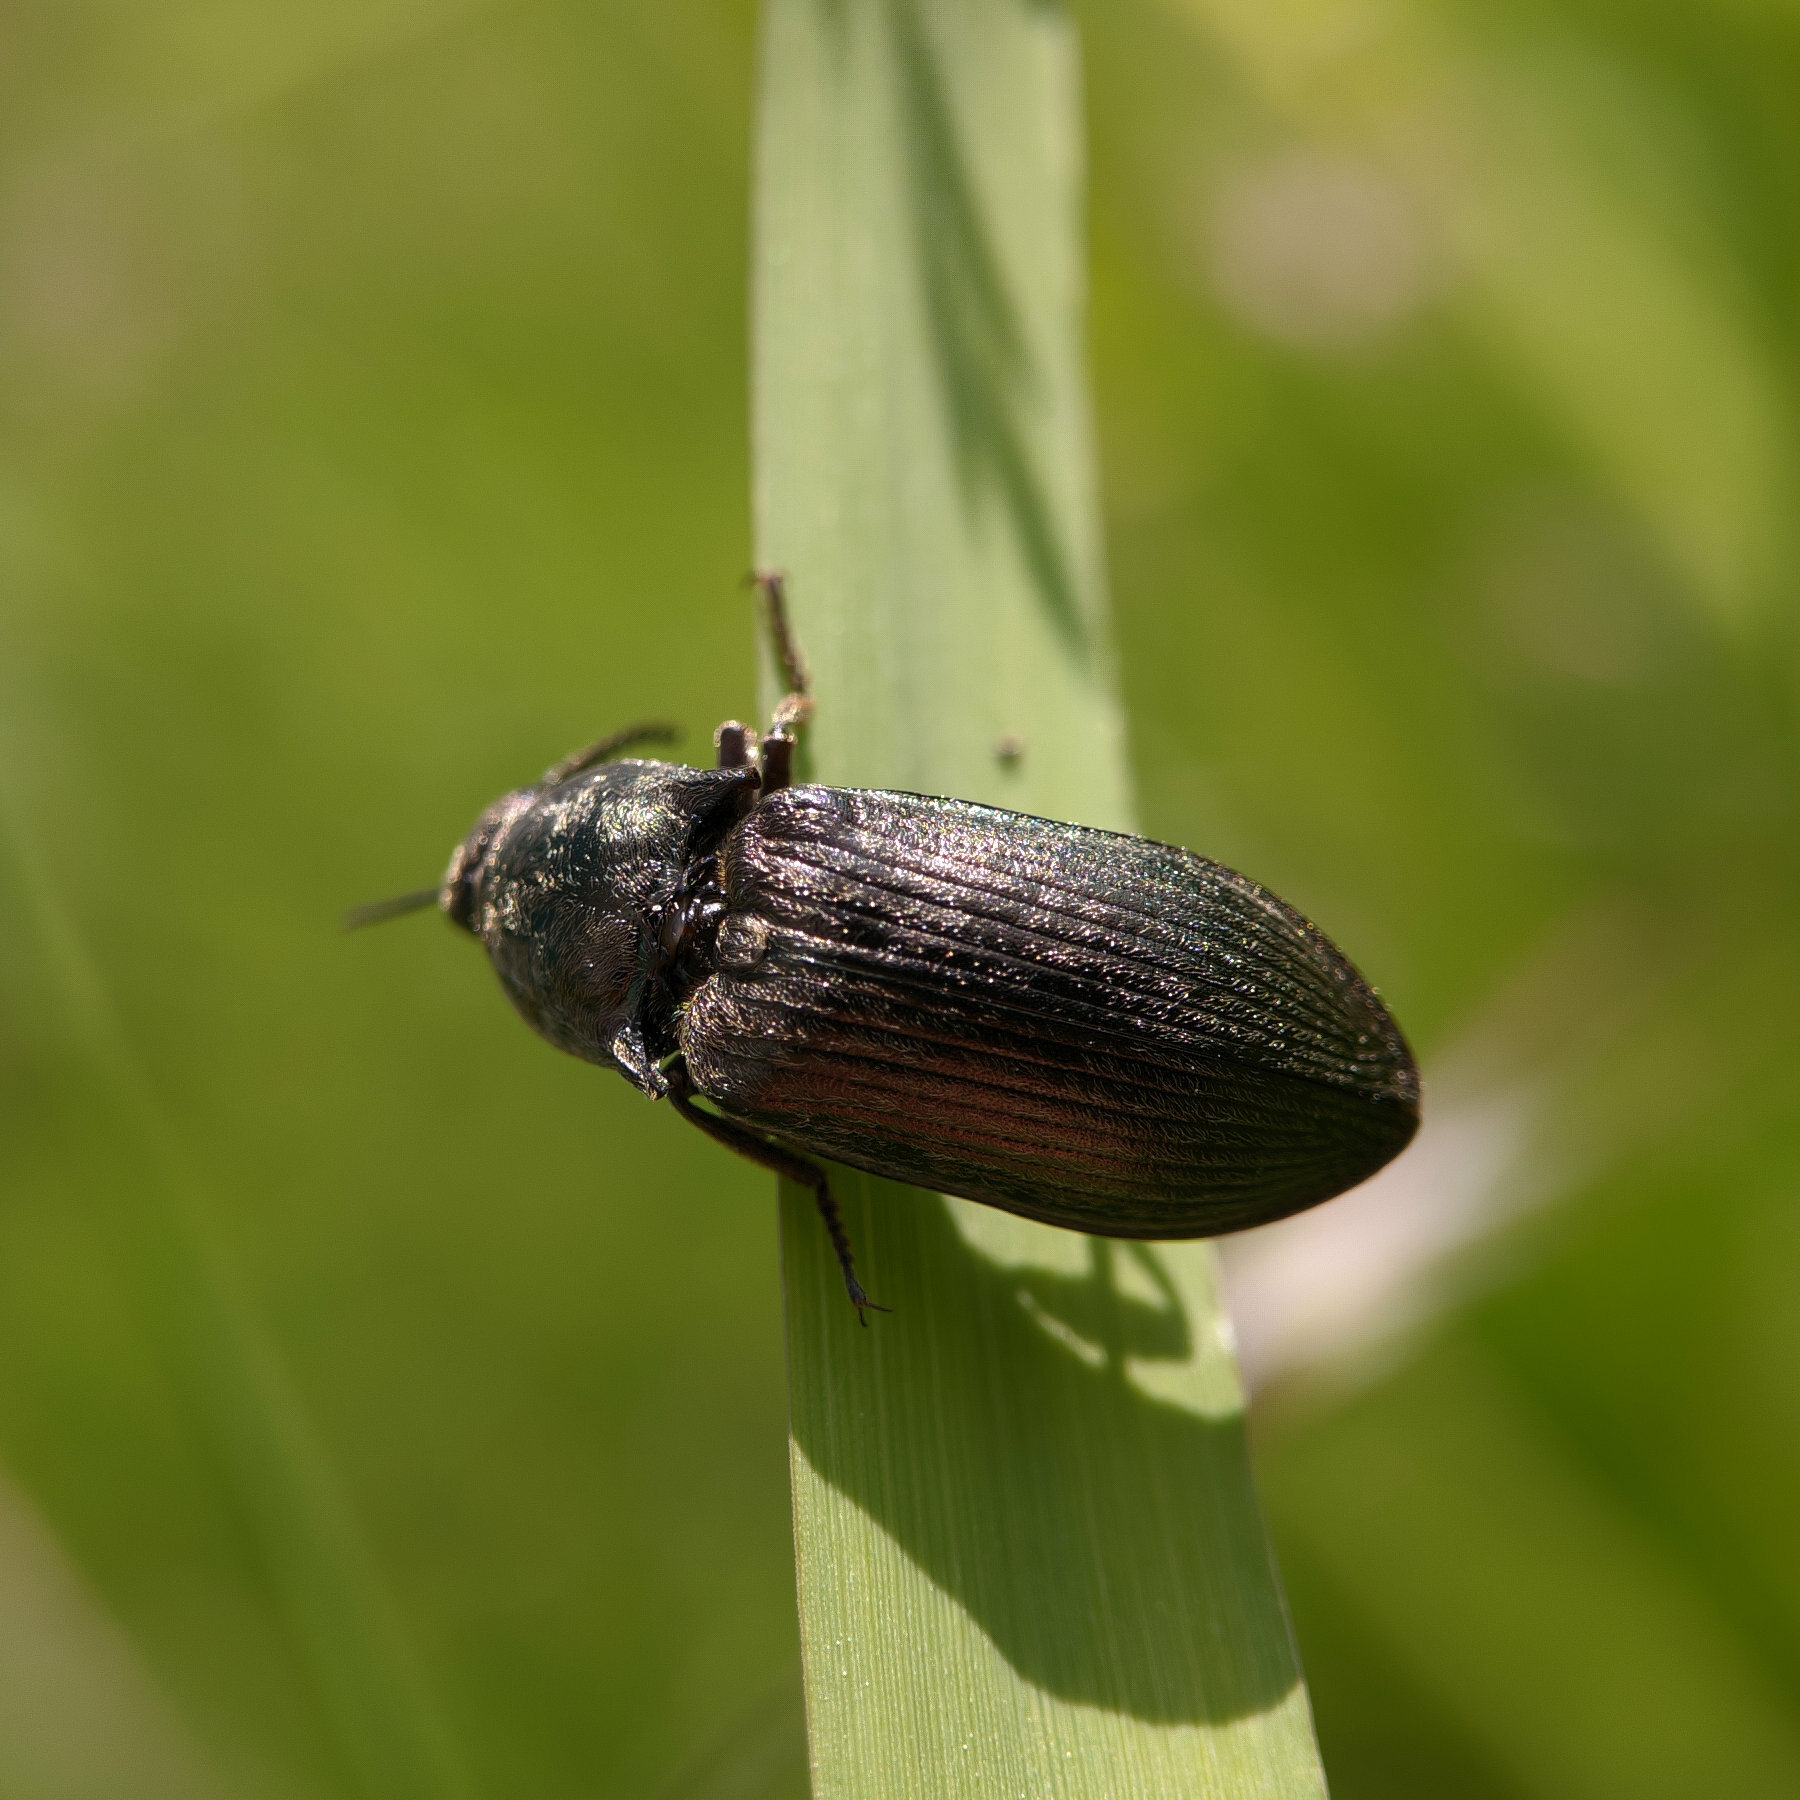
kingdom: Animalia
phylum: Arthropoda
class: Insecta
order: Coleoptera
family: Elateridae
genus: Selatosomus
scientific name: Selatosomus latus
